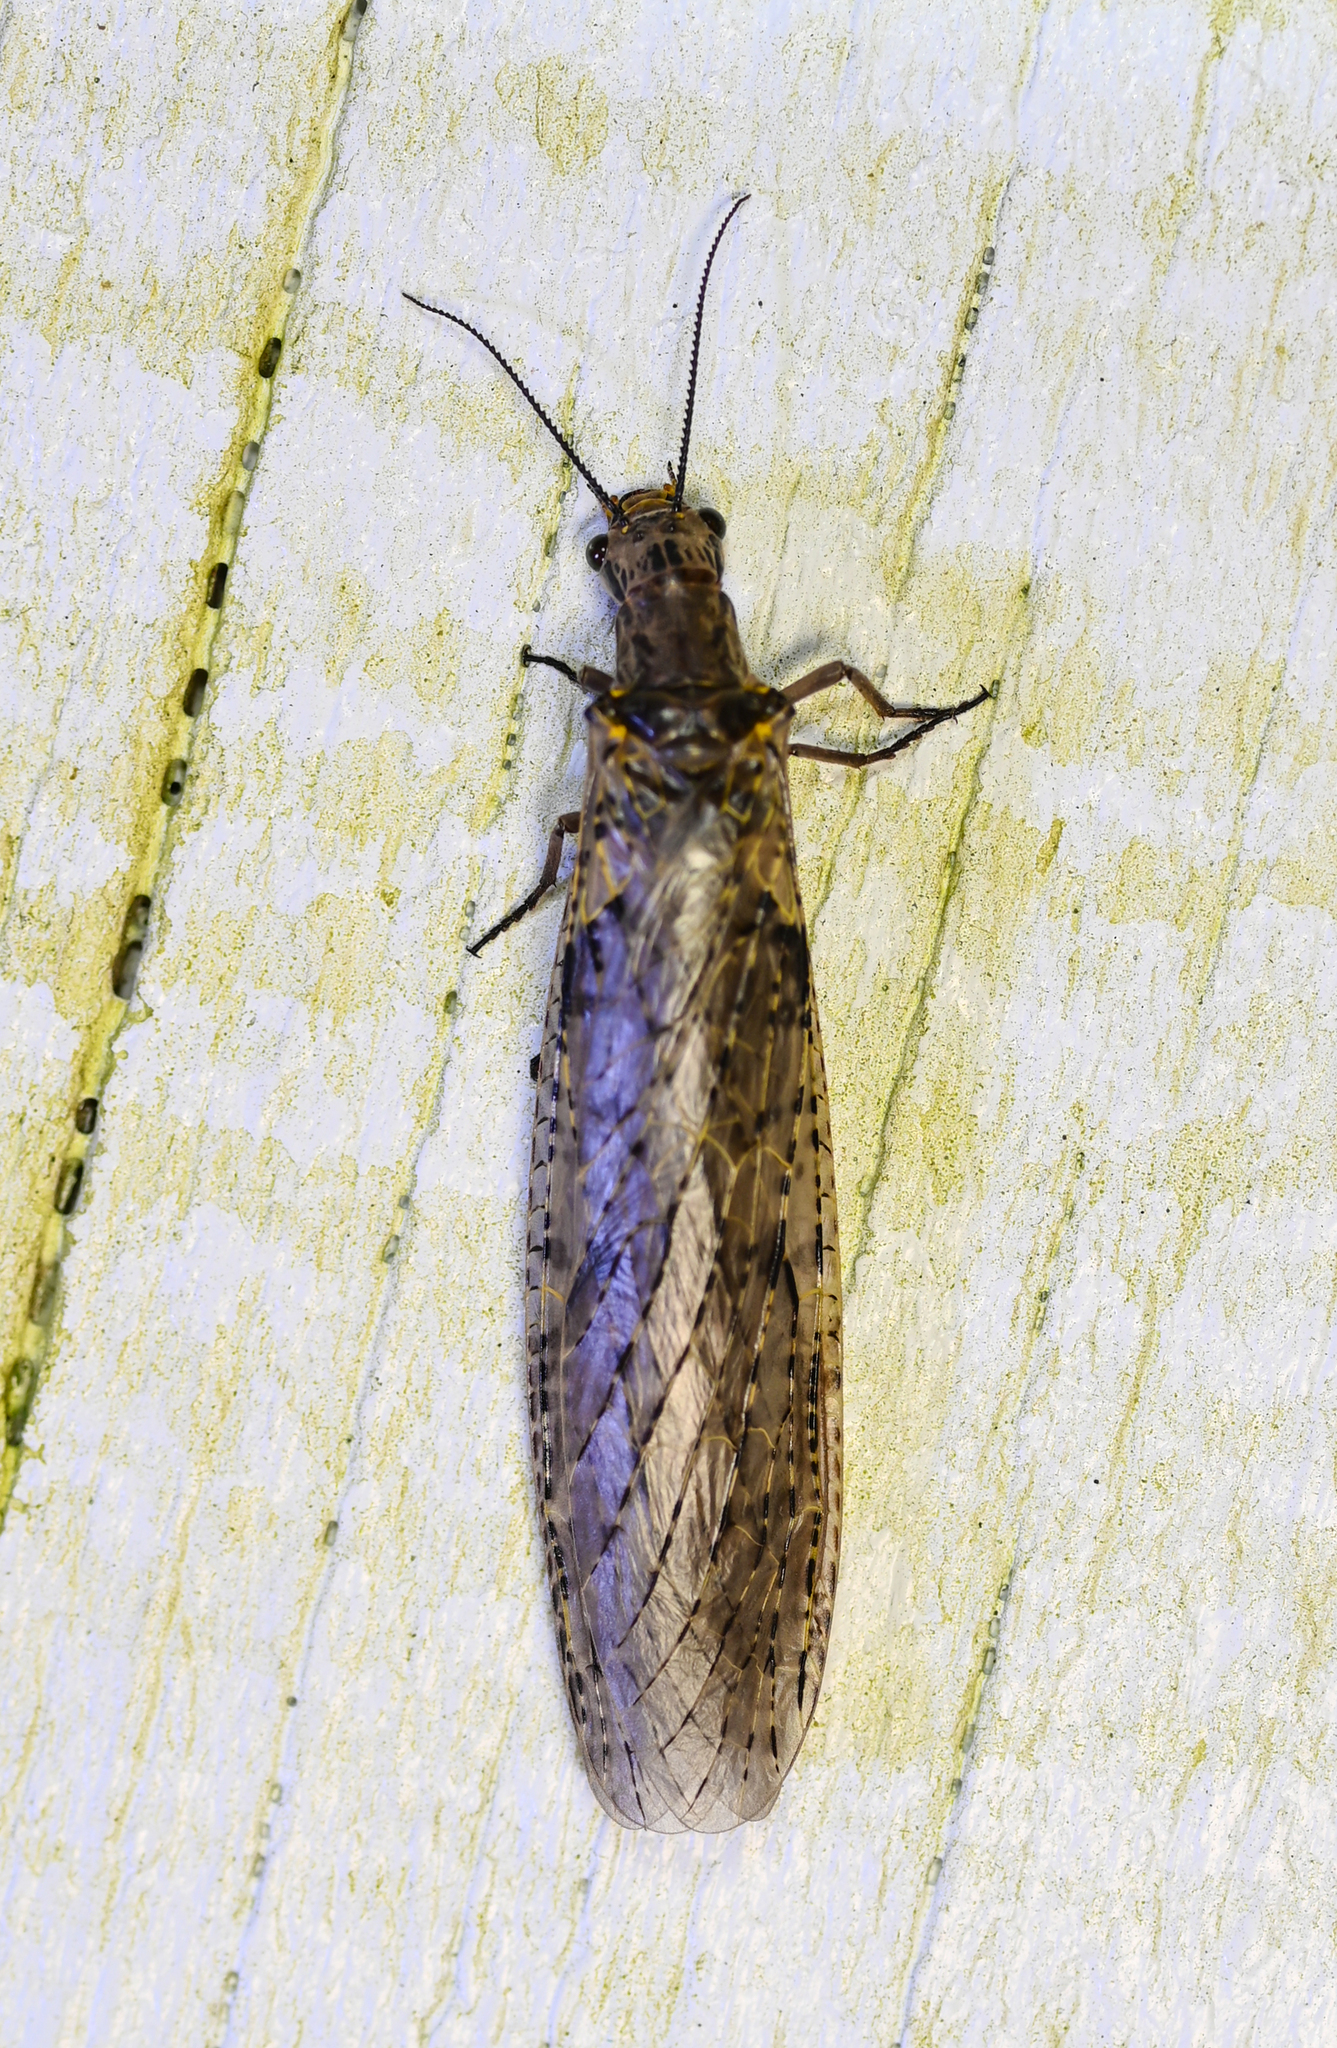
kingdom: Animalia
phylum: Arthropoda
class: Insecta
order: Megaloptera
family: Corydalidae
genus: Chauliodes
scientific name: Chauliodes rastricornis
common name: Spring fishfly
